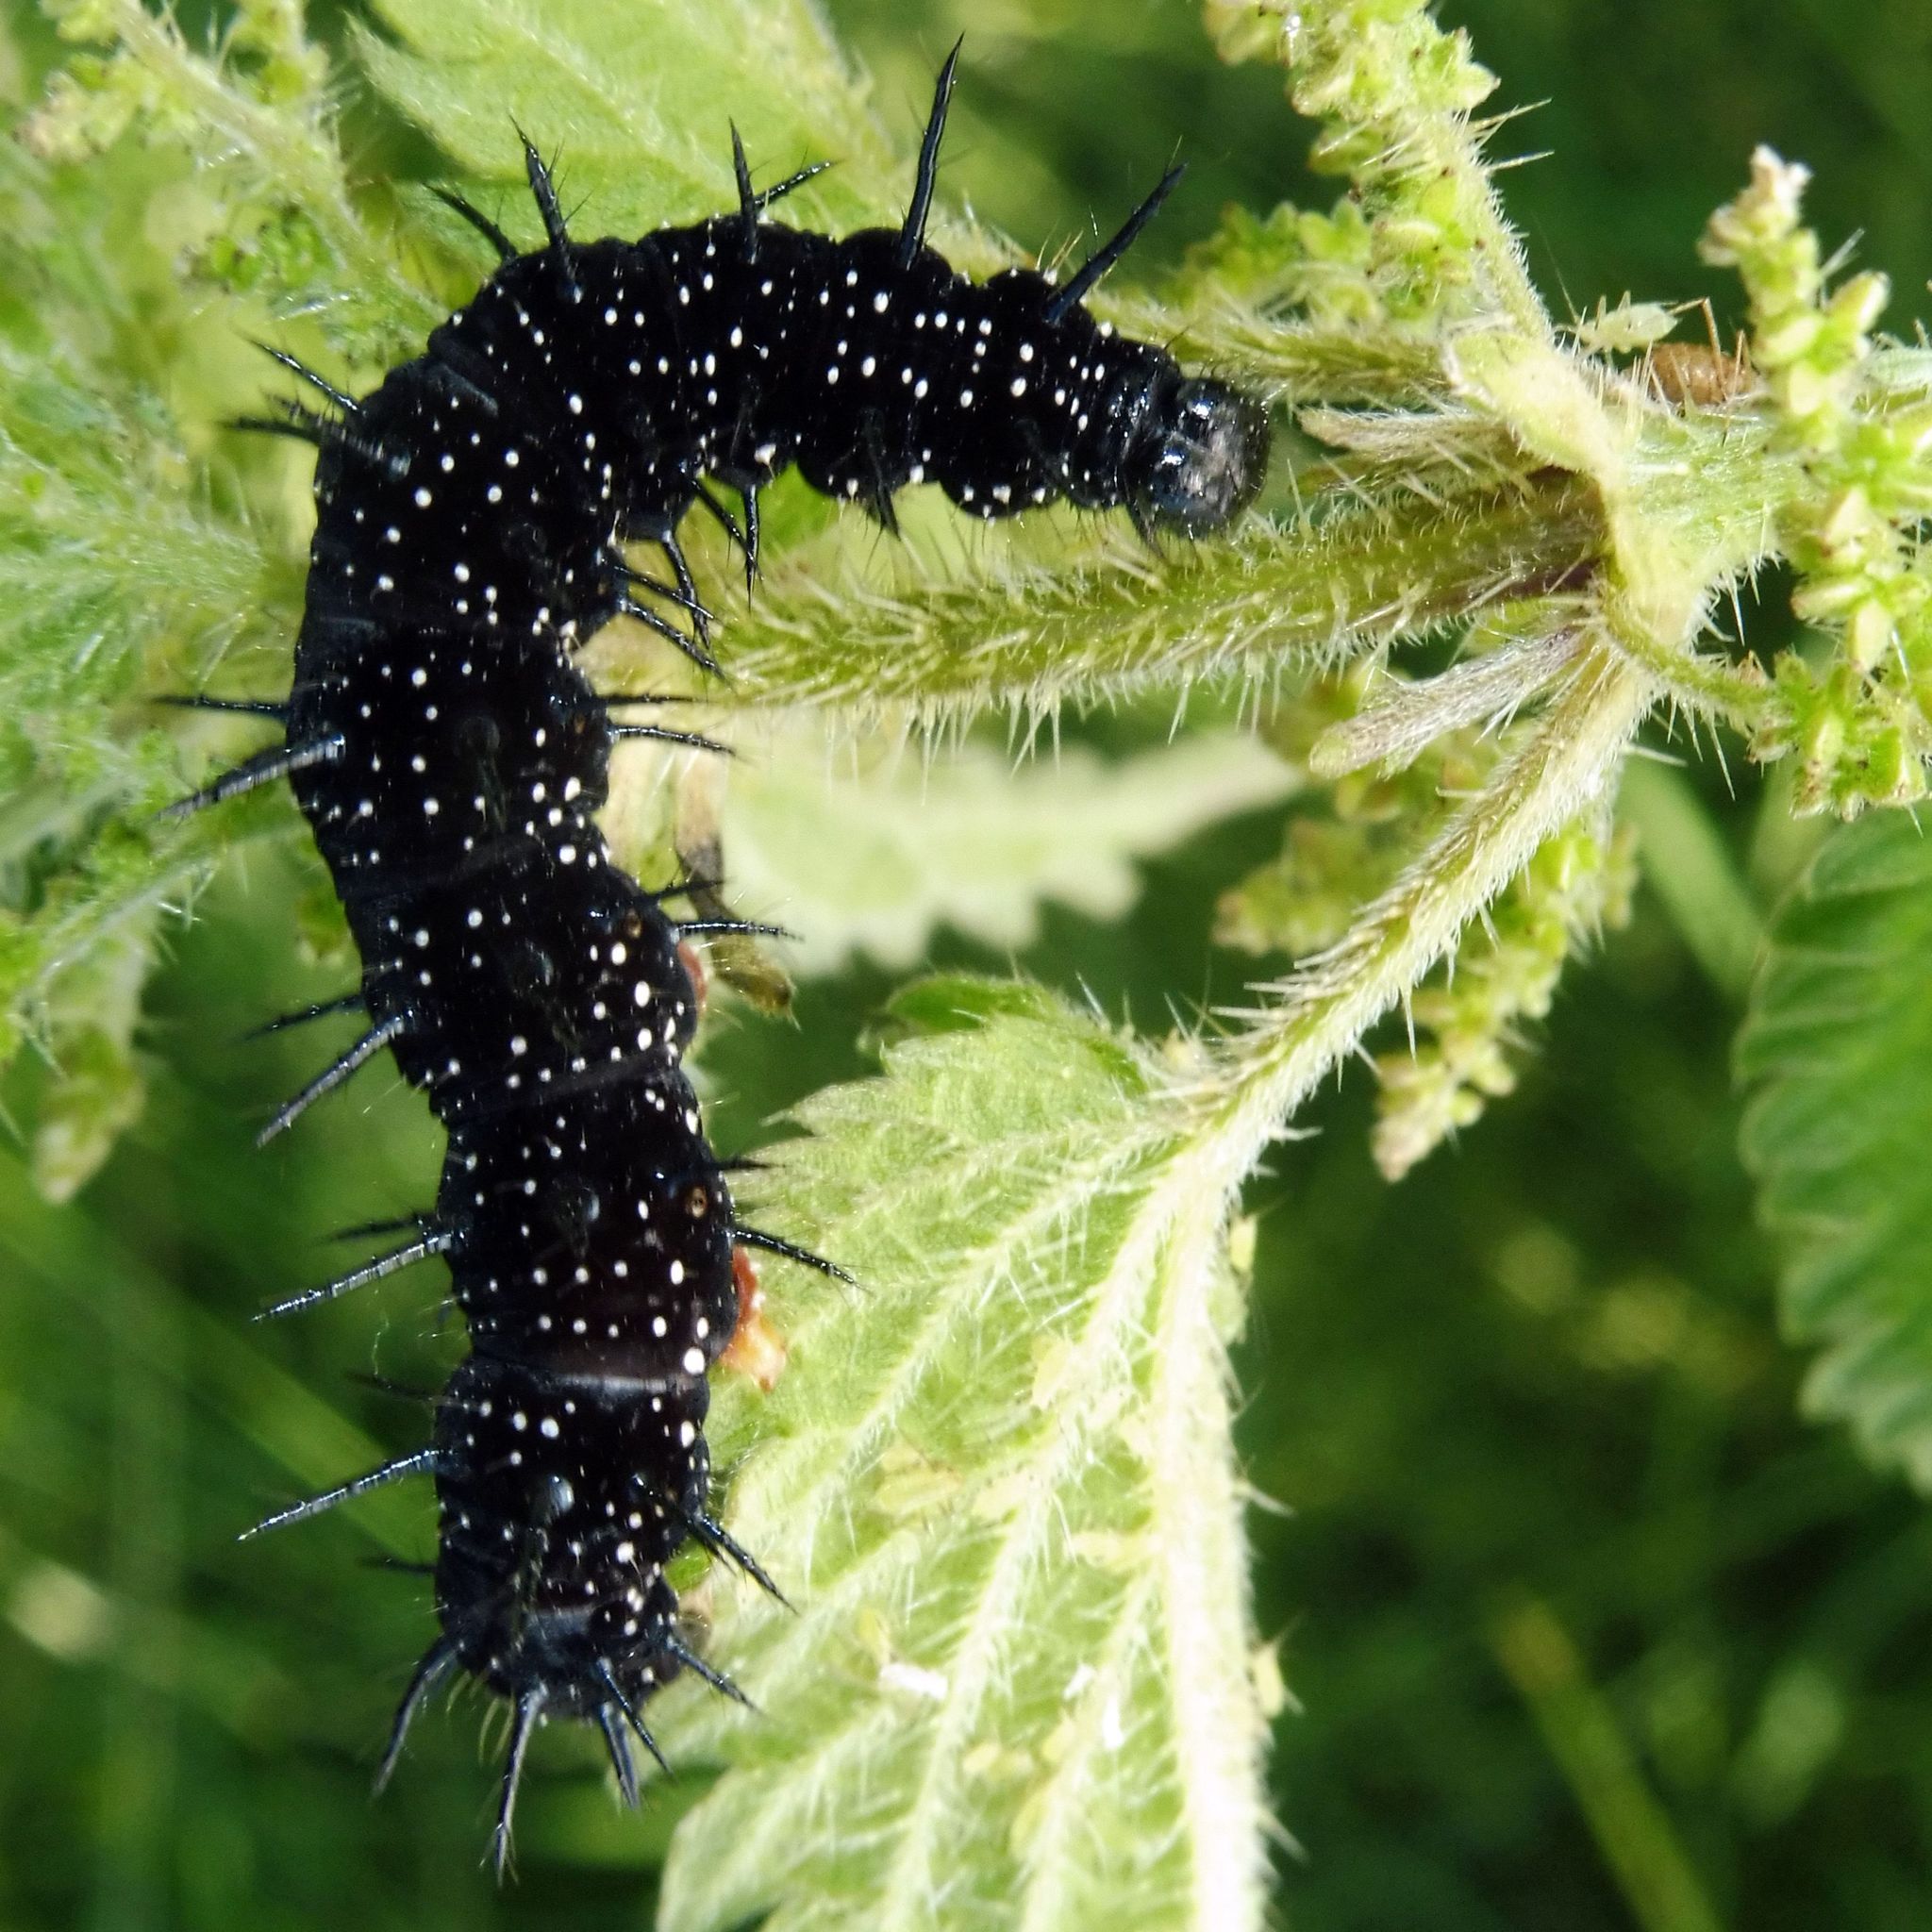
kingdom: Animalia
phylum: Arthropoda
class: Insecta
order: Lepidoptera
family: Nymphalidae
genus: Aglais
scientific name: Aglais io
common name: Peacock
